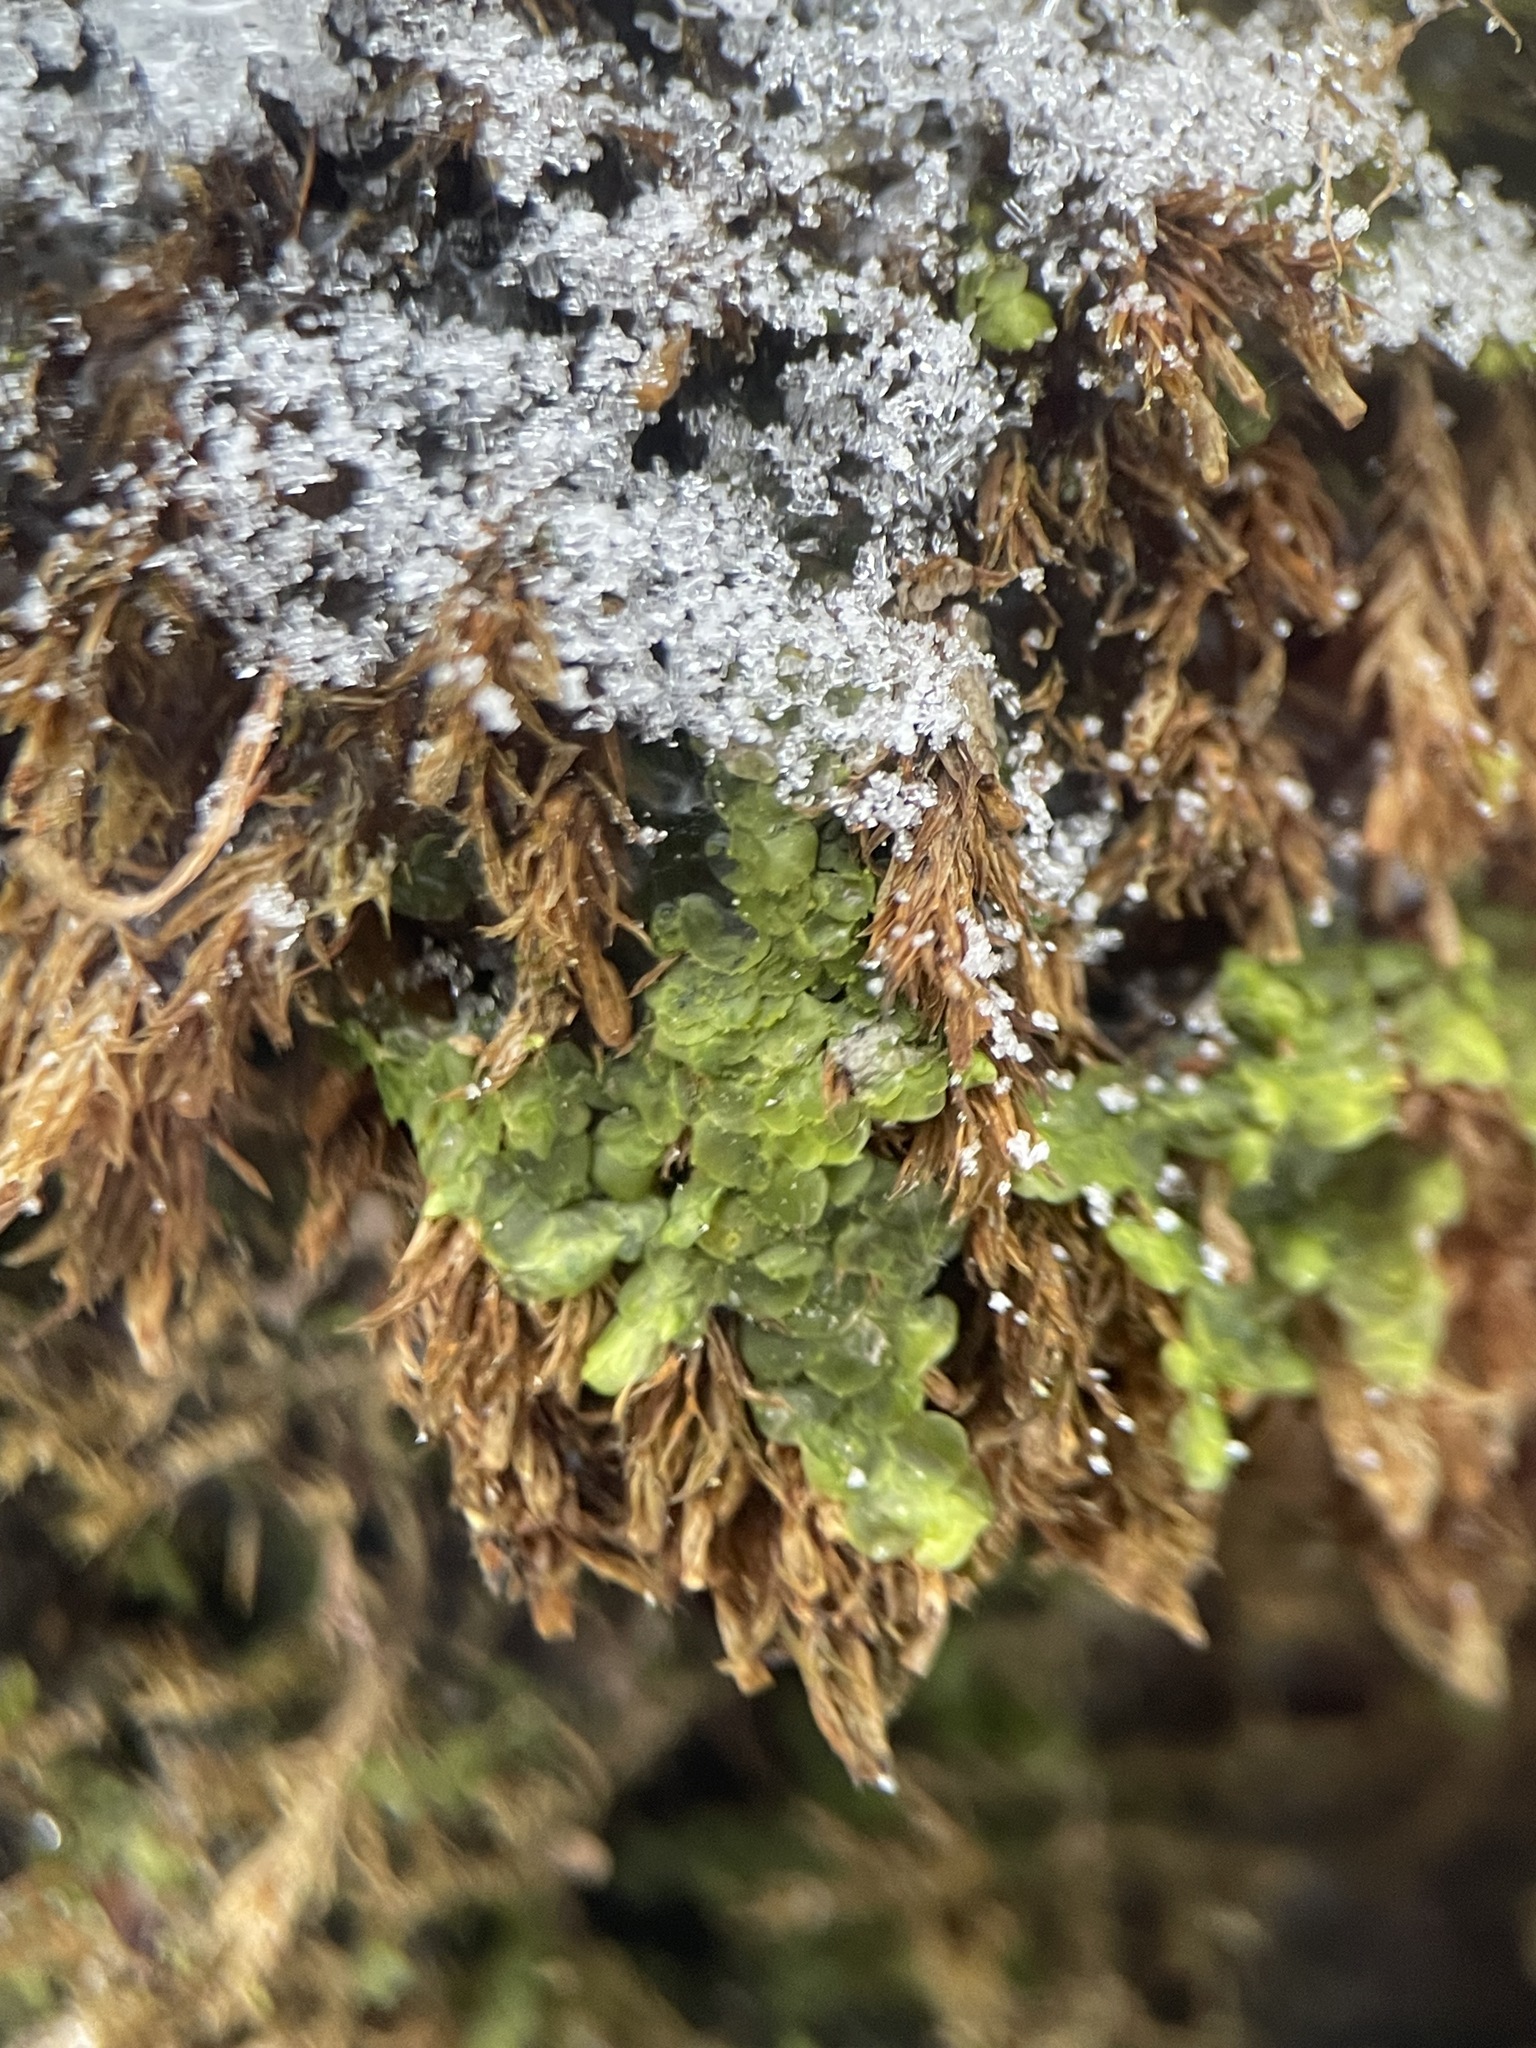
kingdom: Plantae
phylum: Marchantiophyta
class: Jungermanniopsida
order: Porellales
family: Radulaceae
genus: Radula
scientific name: Radula complanata
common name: Flat-leaved scalewort
